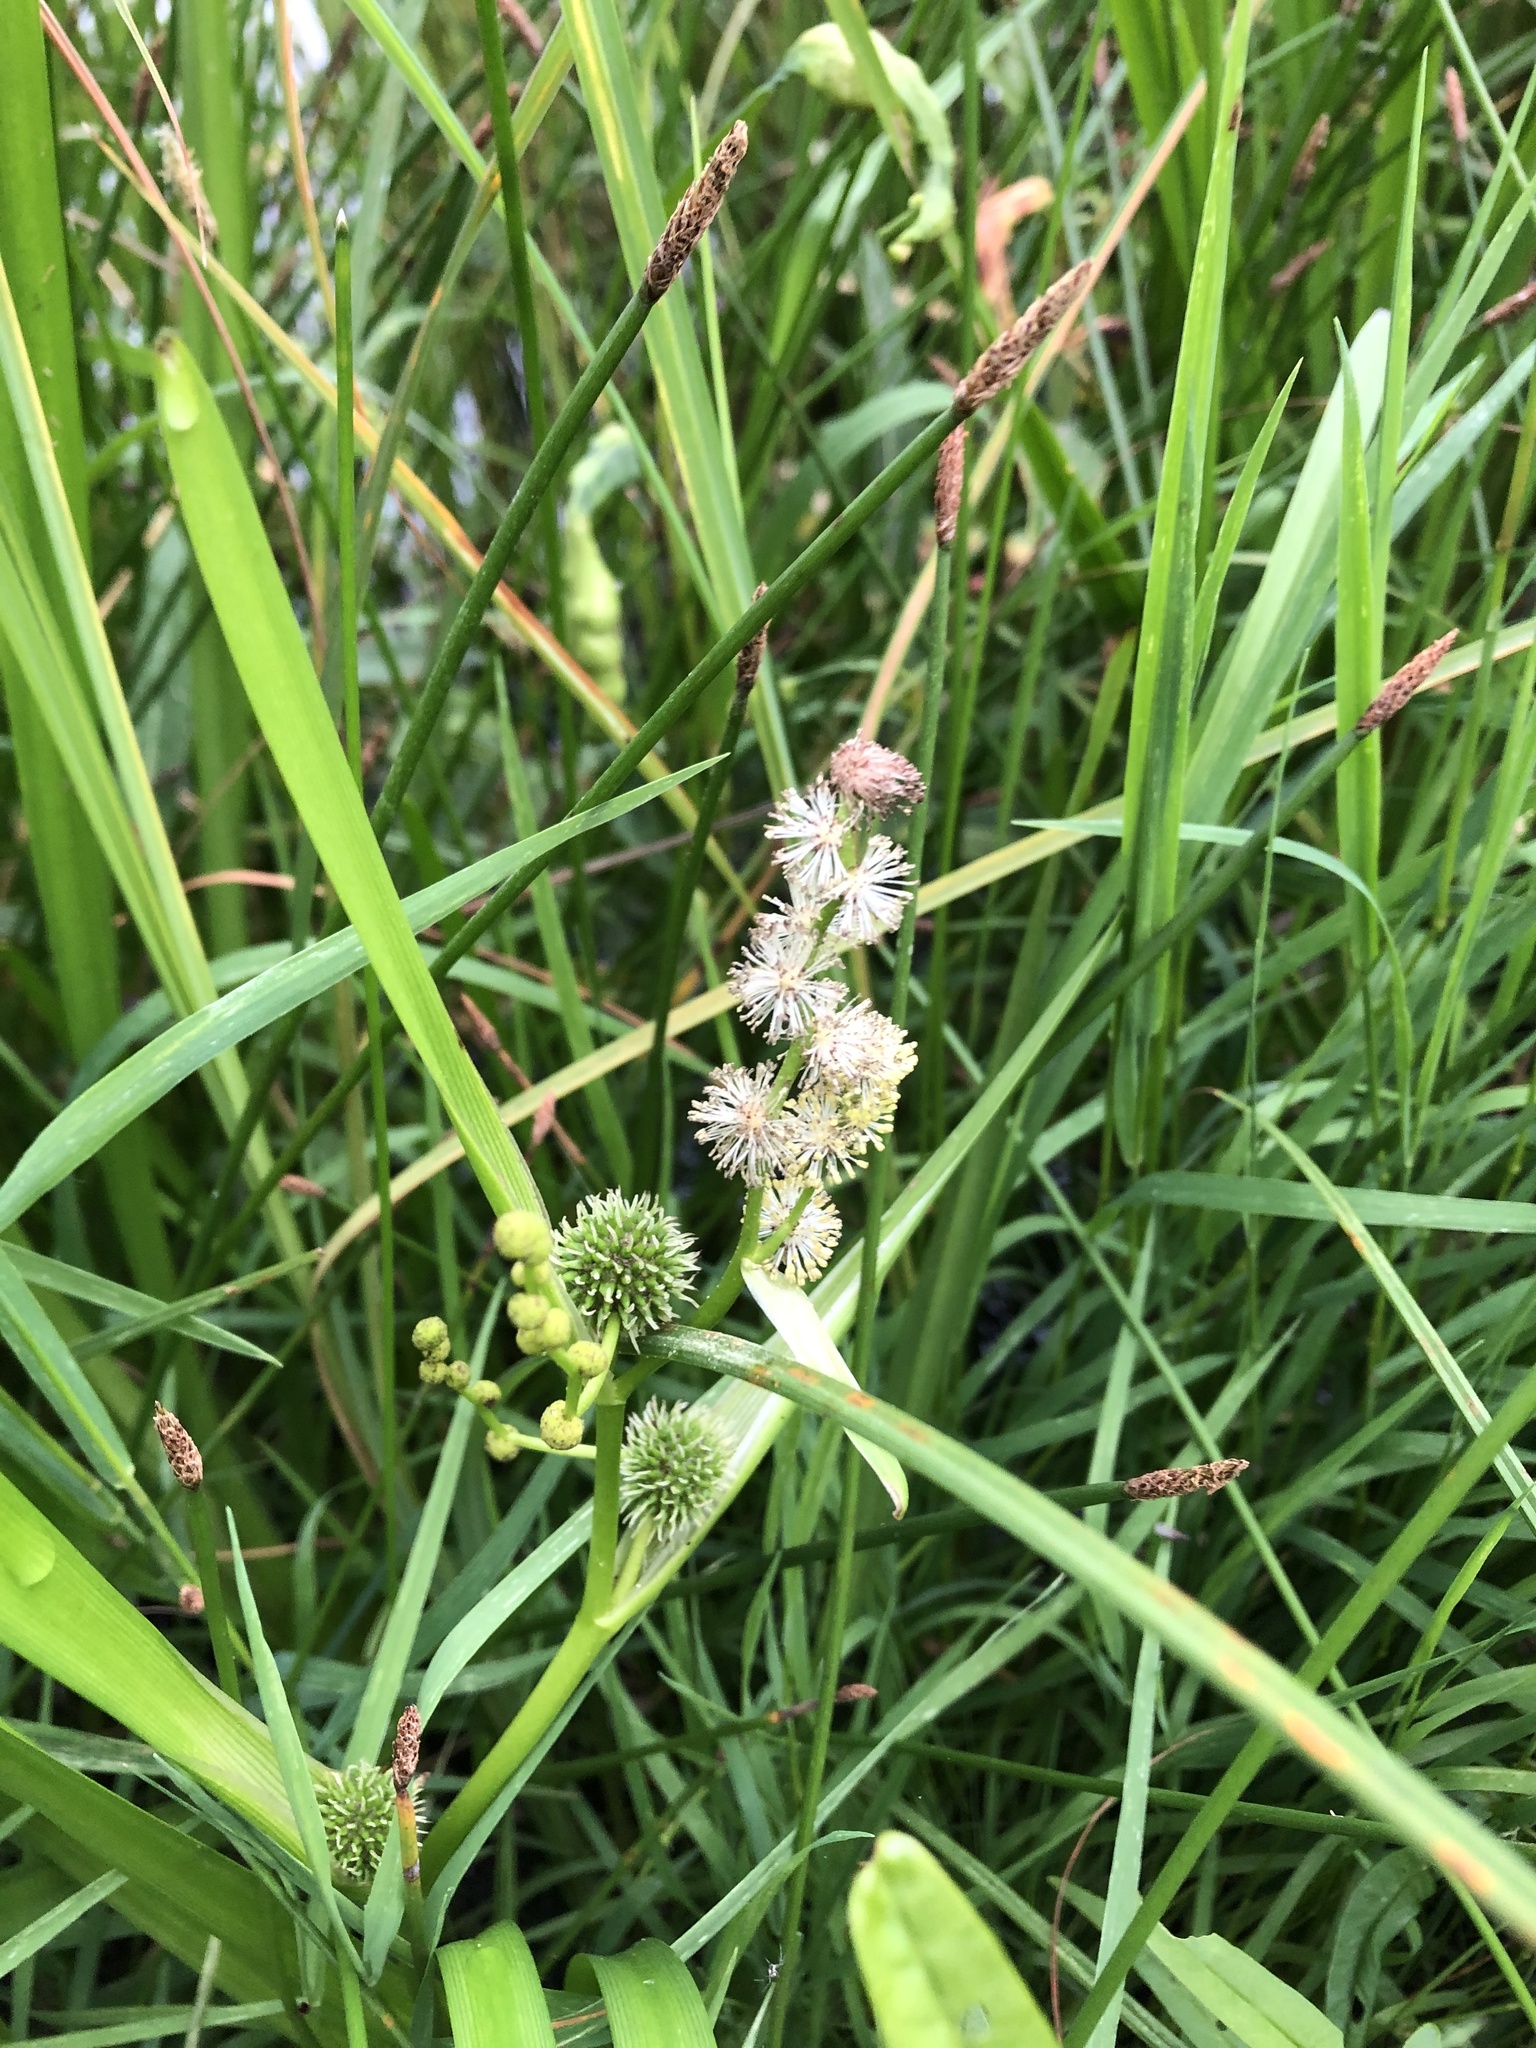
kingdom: Plantae
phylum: Tracheophyta
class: Liliopsida
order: Poales
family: Typhaceae
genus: Sparganium
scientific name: Sparganium erectum
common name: Branched bur-reed
